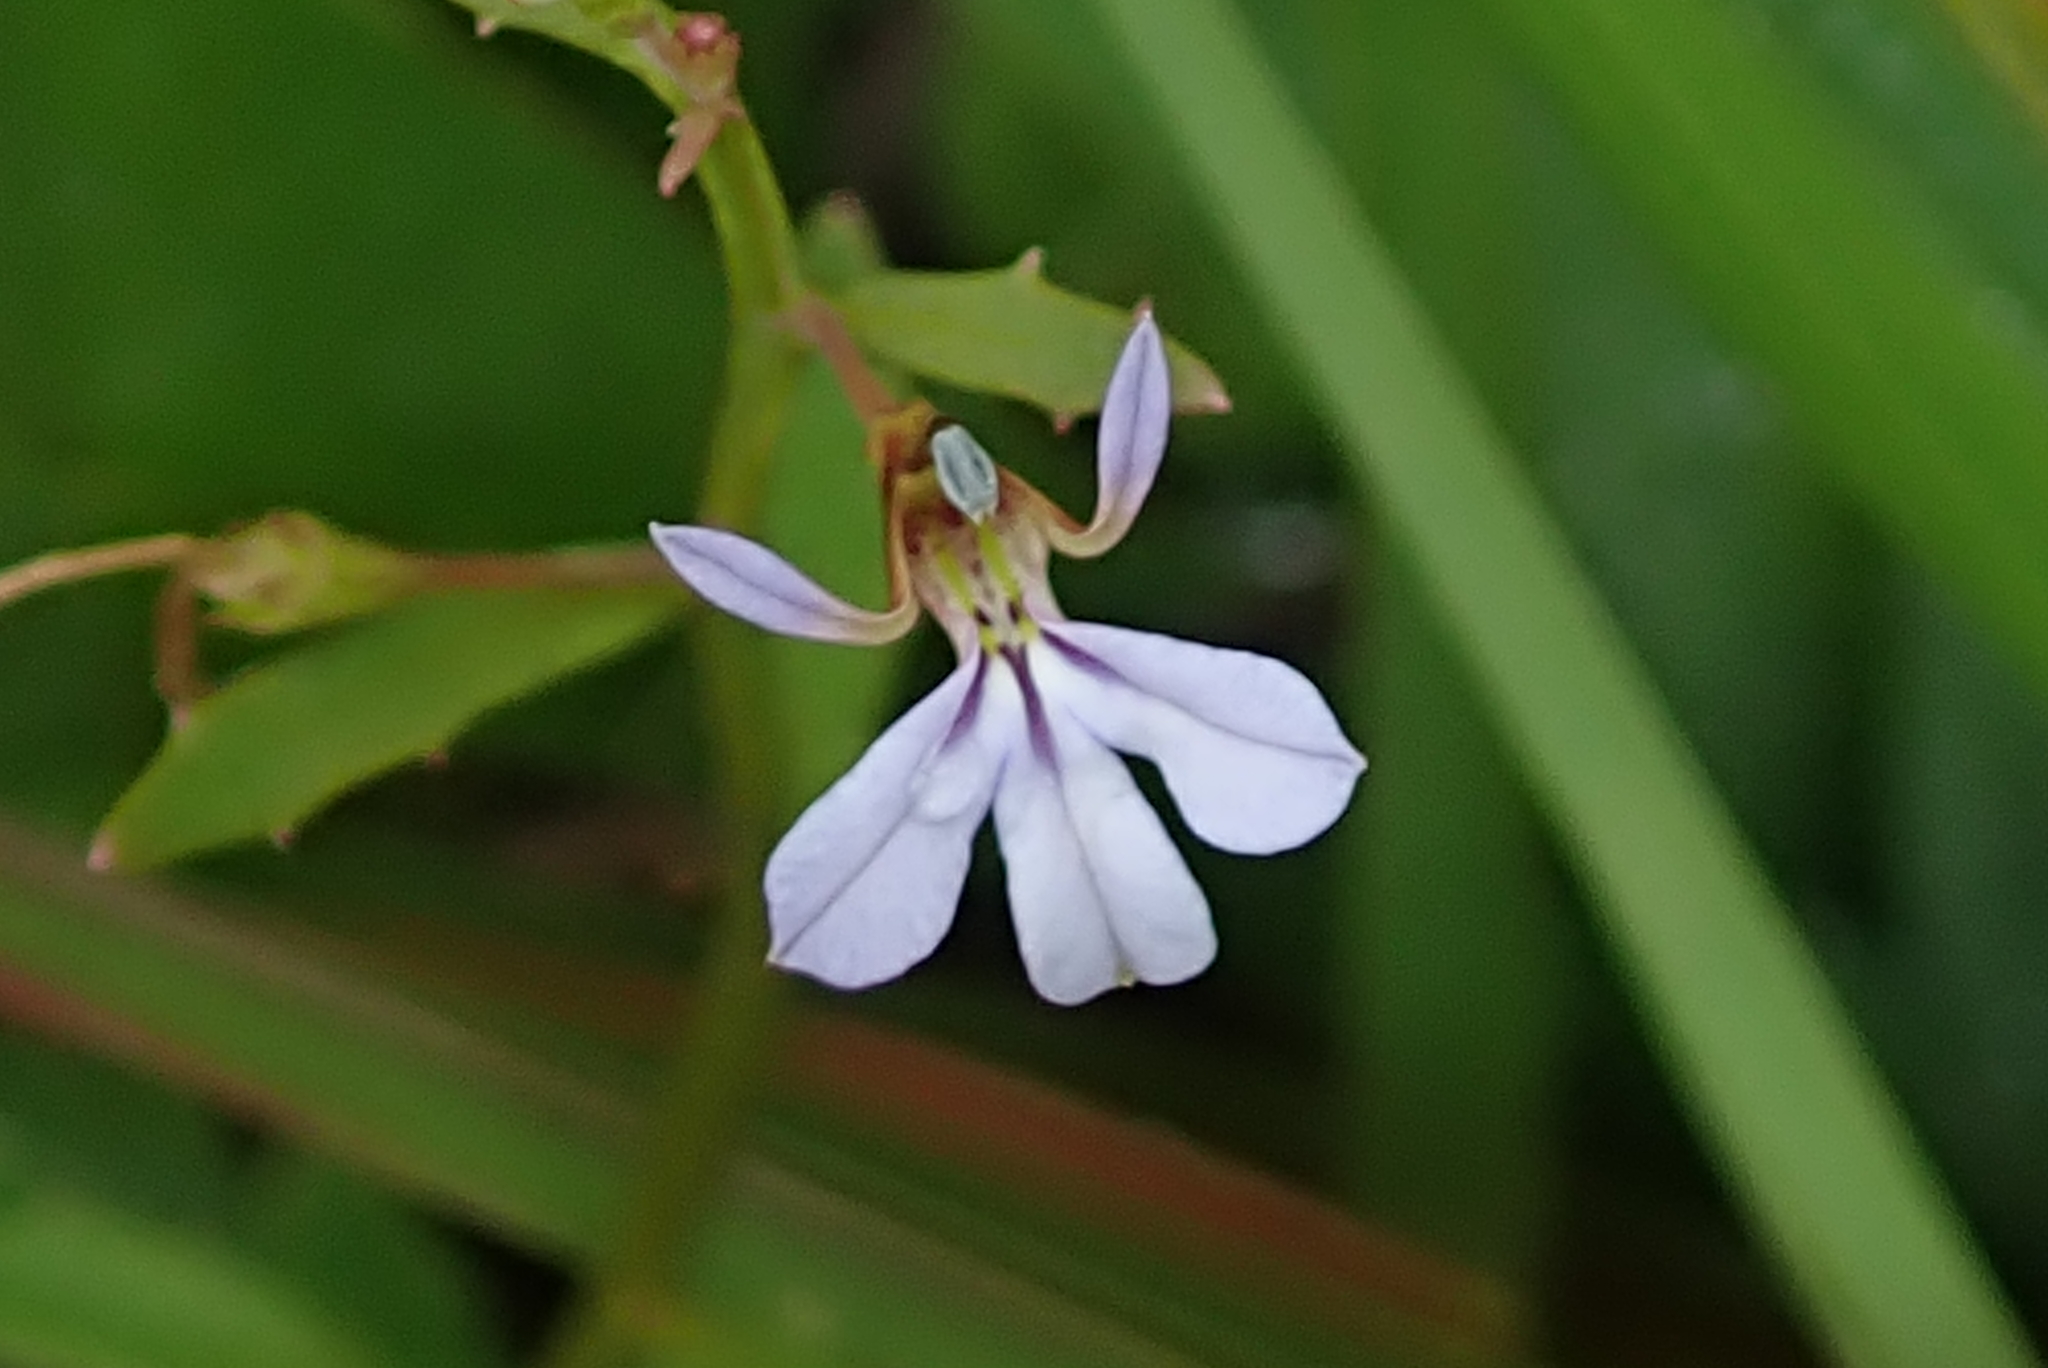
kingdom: Plantae
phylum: Tracheophyta
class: Magnoliopsida
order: Asterales
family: Campanulaceae
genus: Lobelia
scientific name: Lobelia anceps
